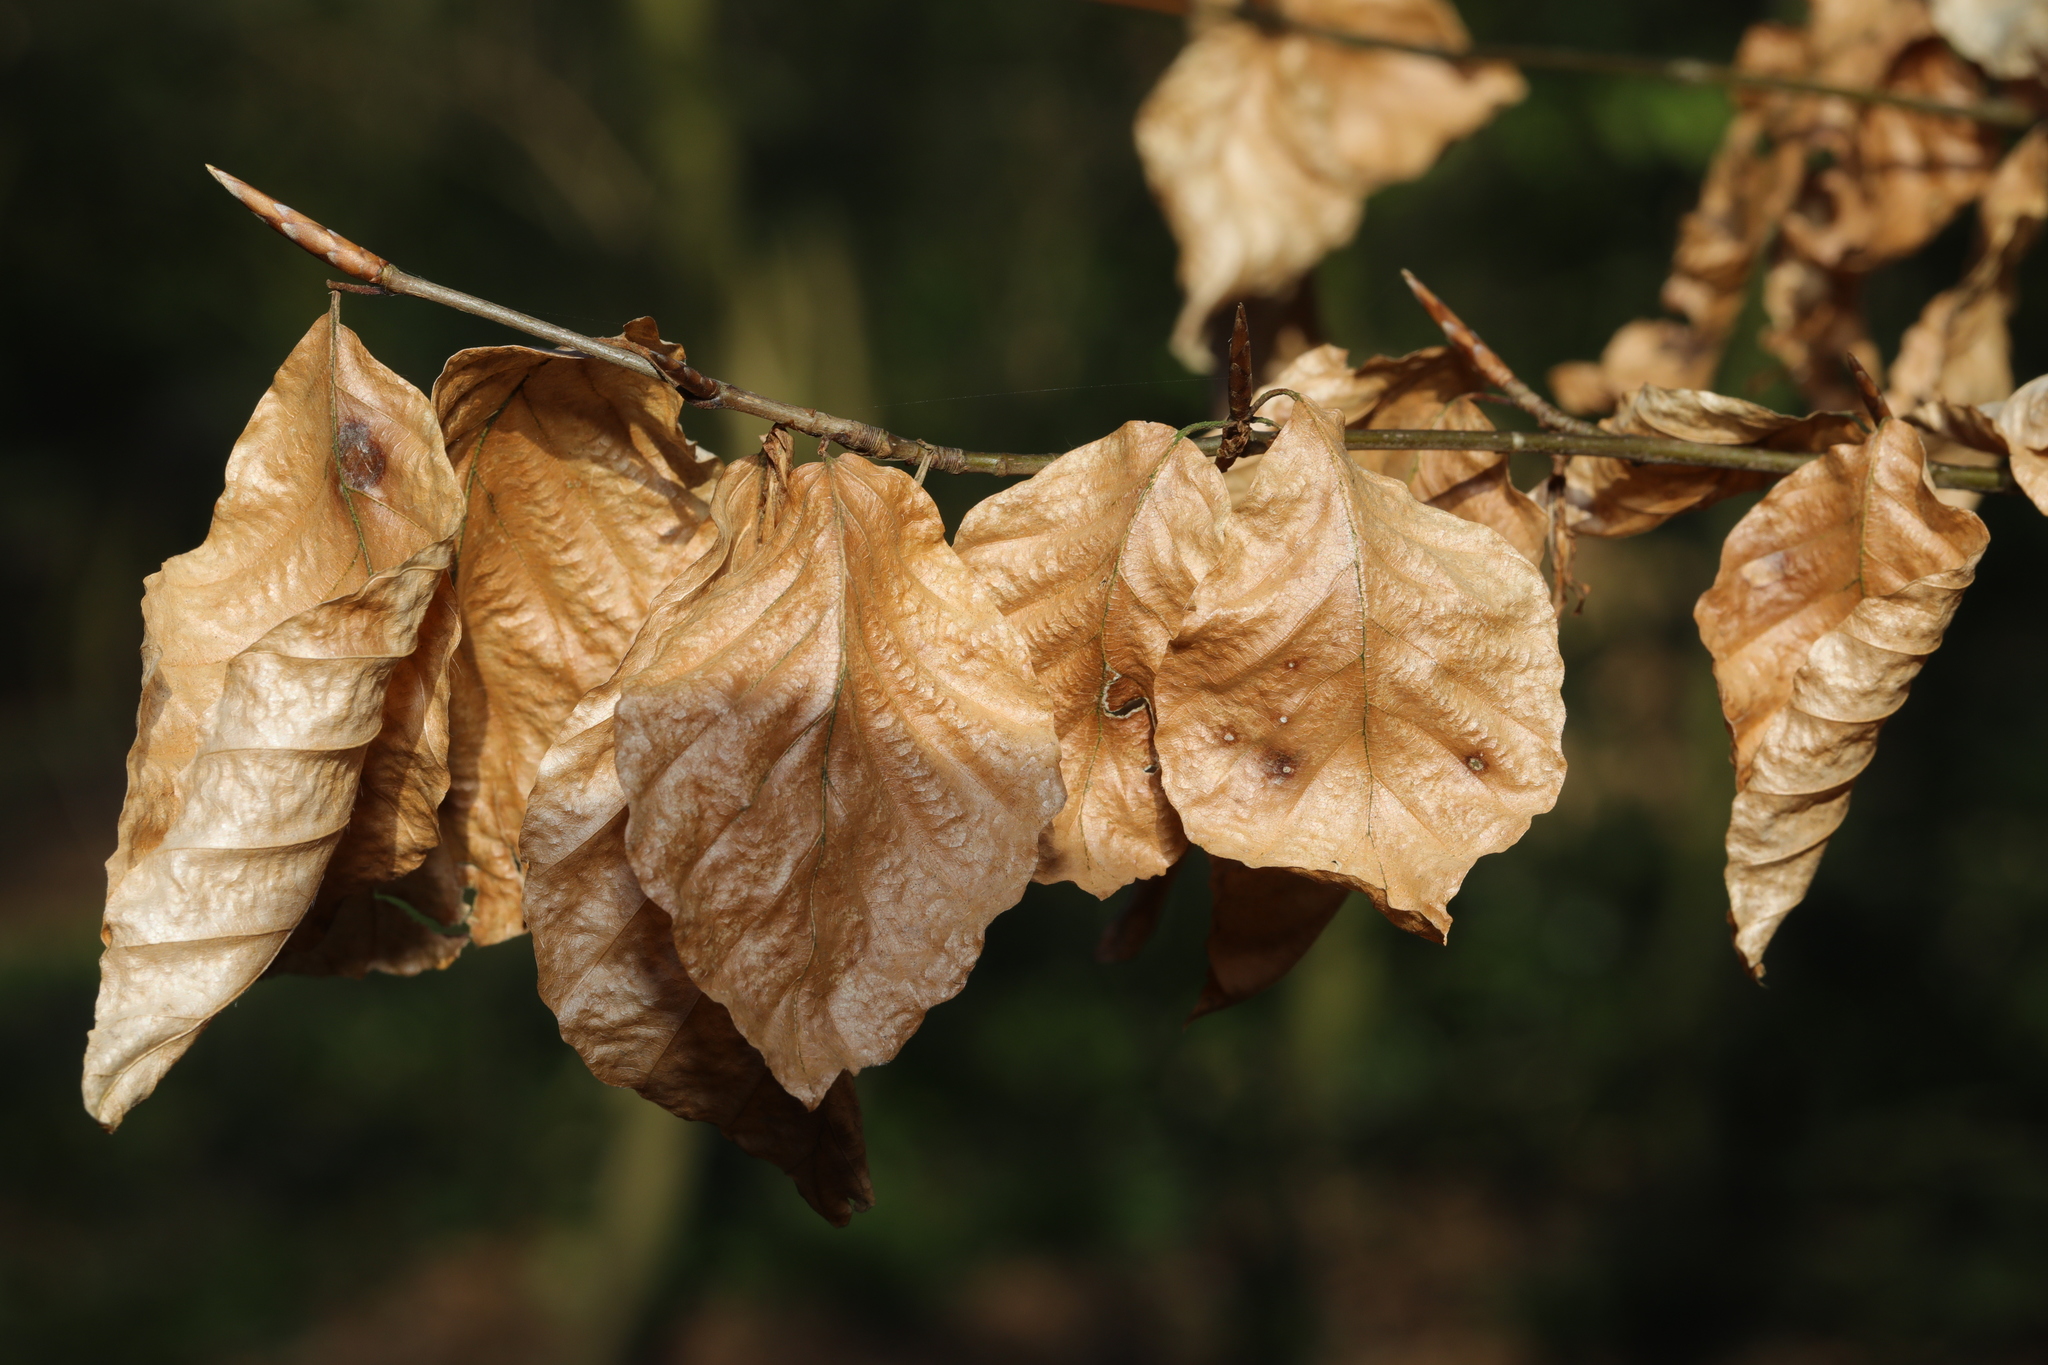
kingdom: Plantae
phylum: Tracheophyta
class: Magnoliopsida
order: Fagales
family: Fagaceae
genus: Fagus
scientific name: Fagus sylvatica
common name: Beech
